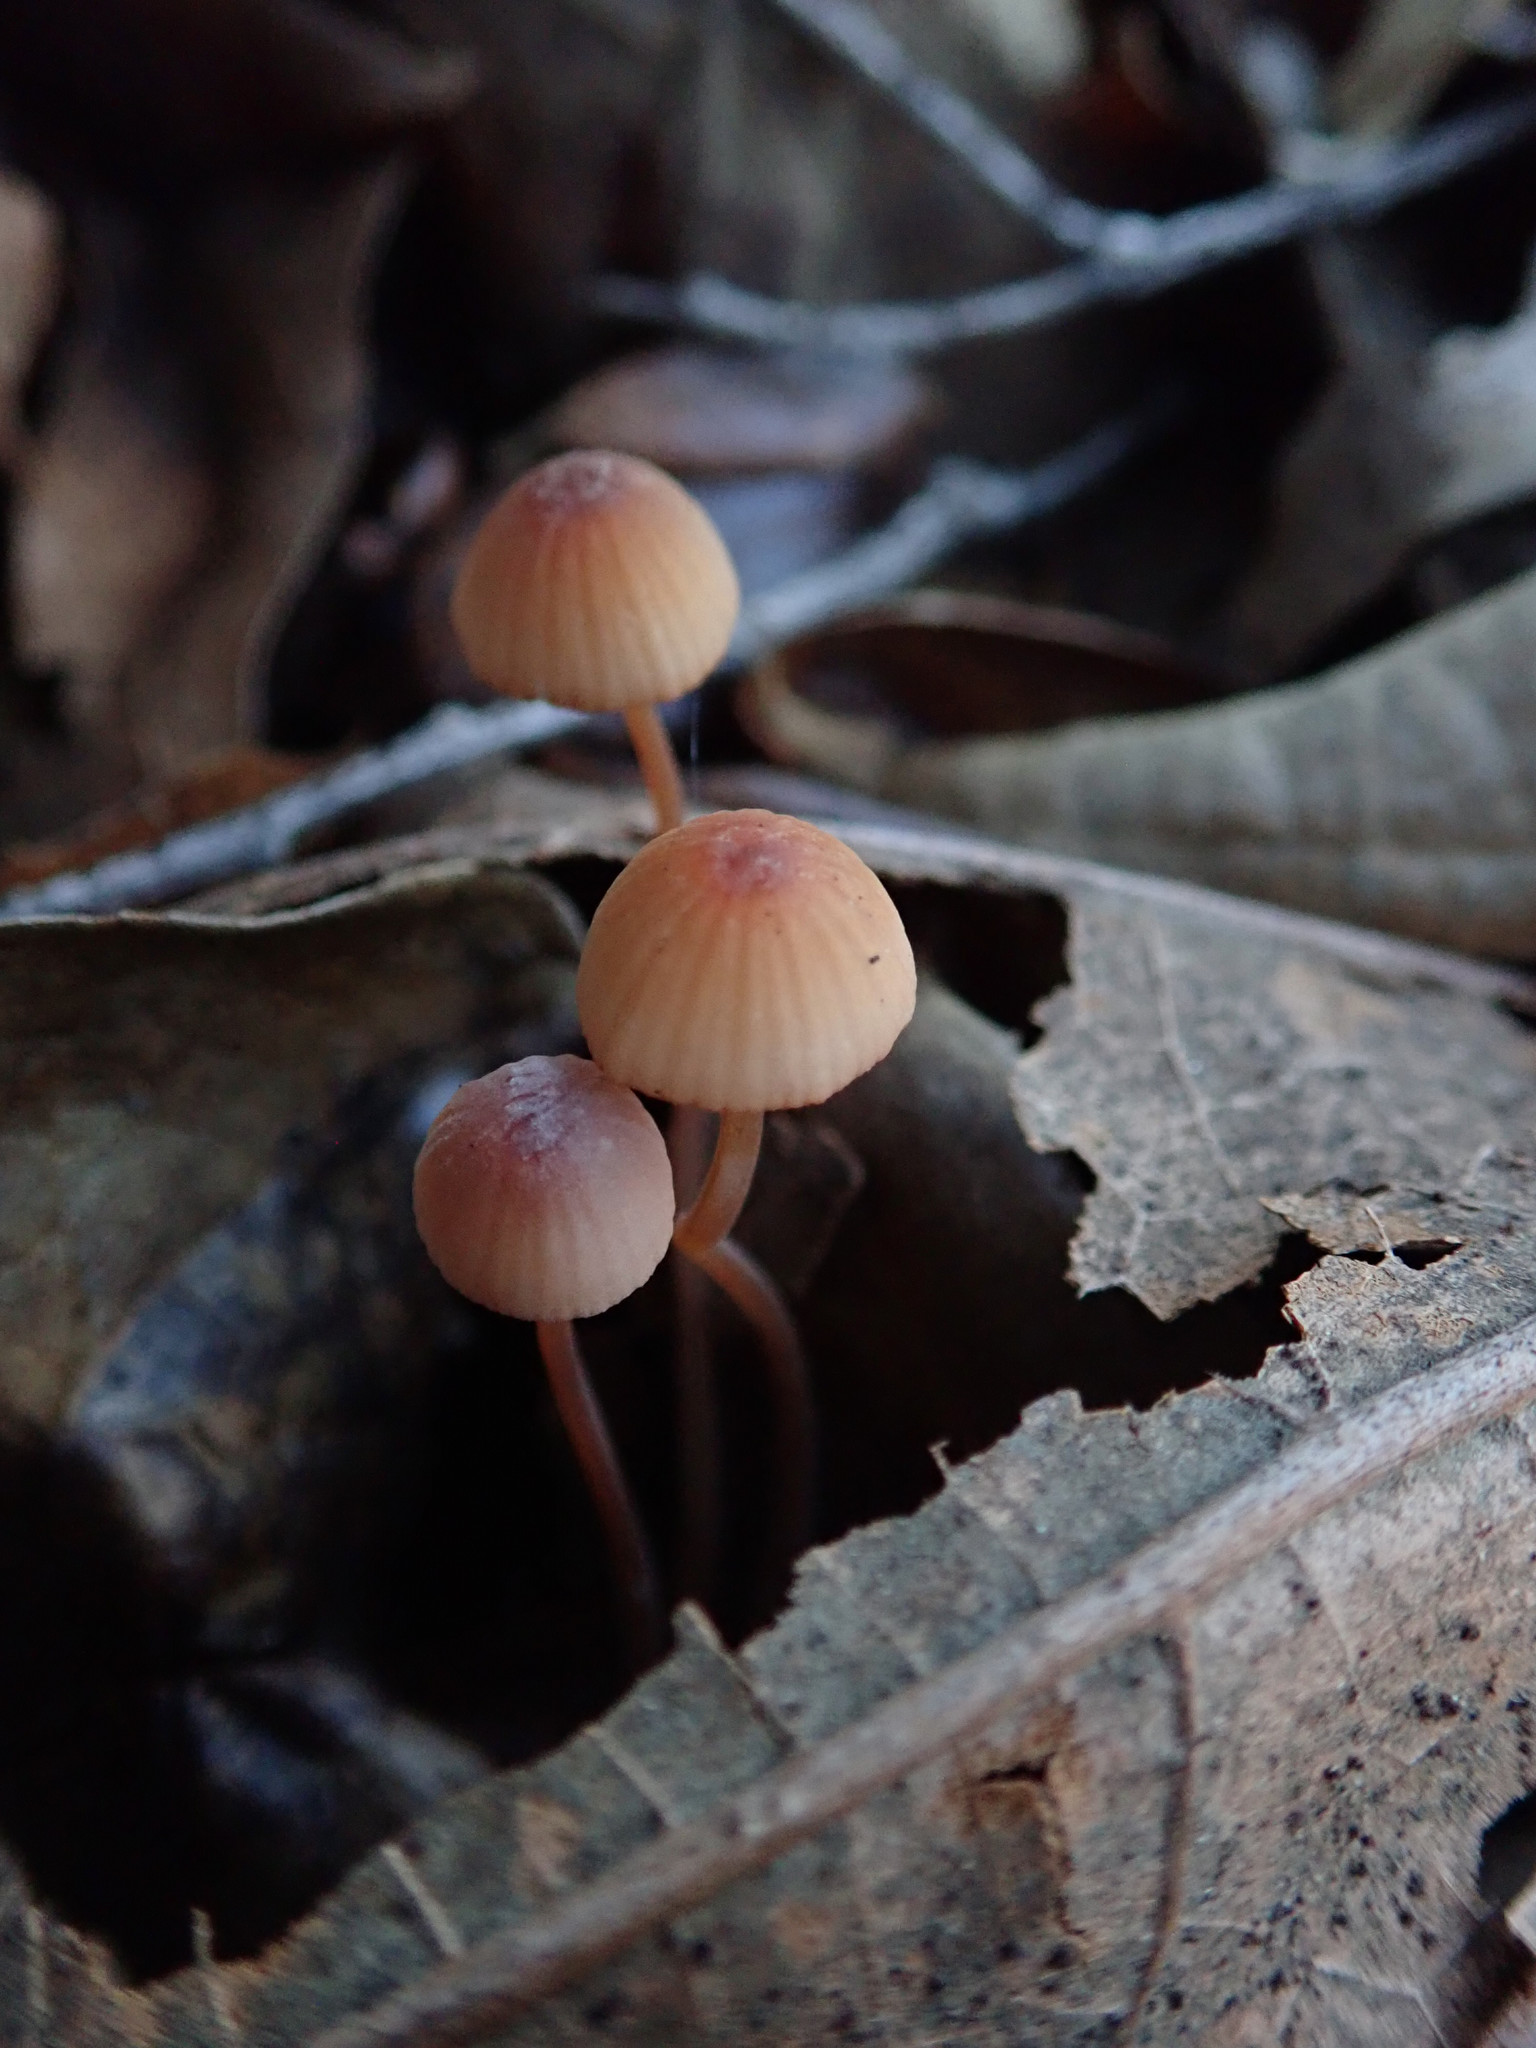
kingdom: Fungi
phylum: Basidiomycota
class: Agaricomycetes
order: Agaricales
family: Mycenaceae
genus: Mycena
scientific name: Mycena
